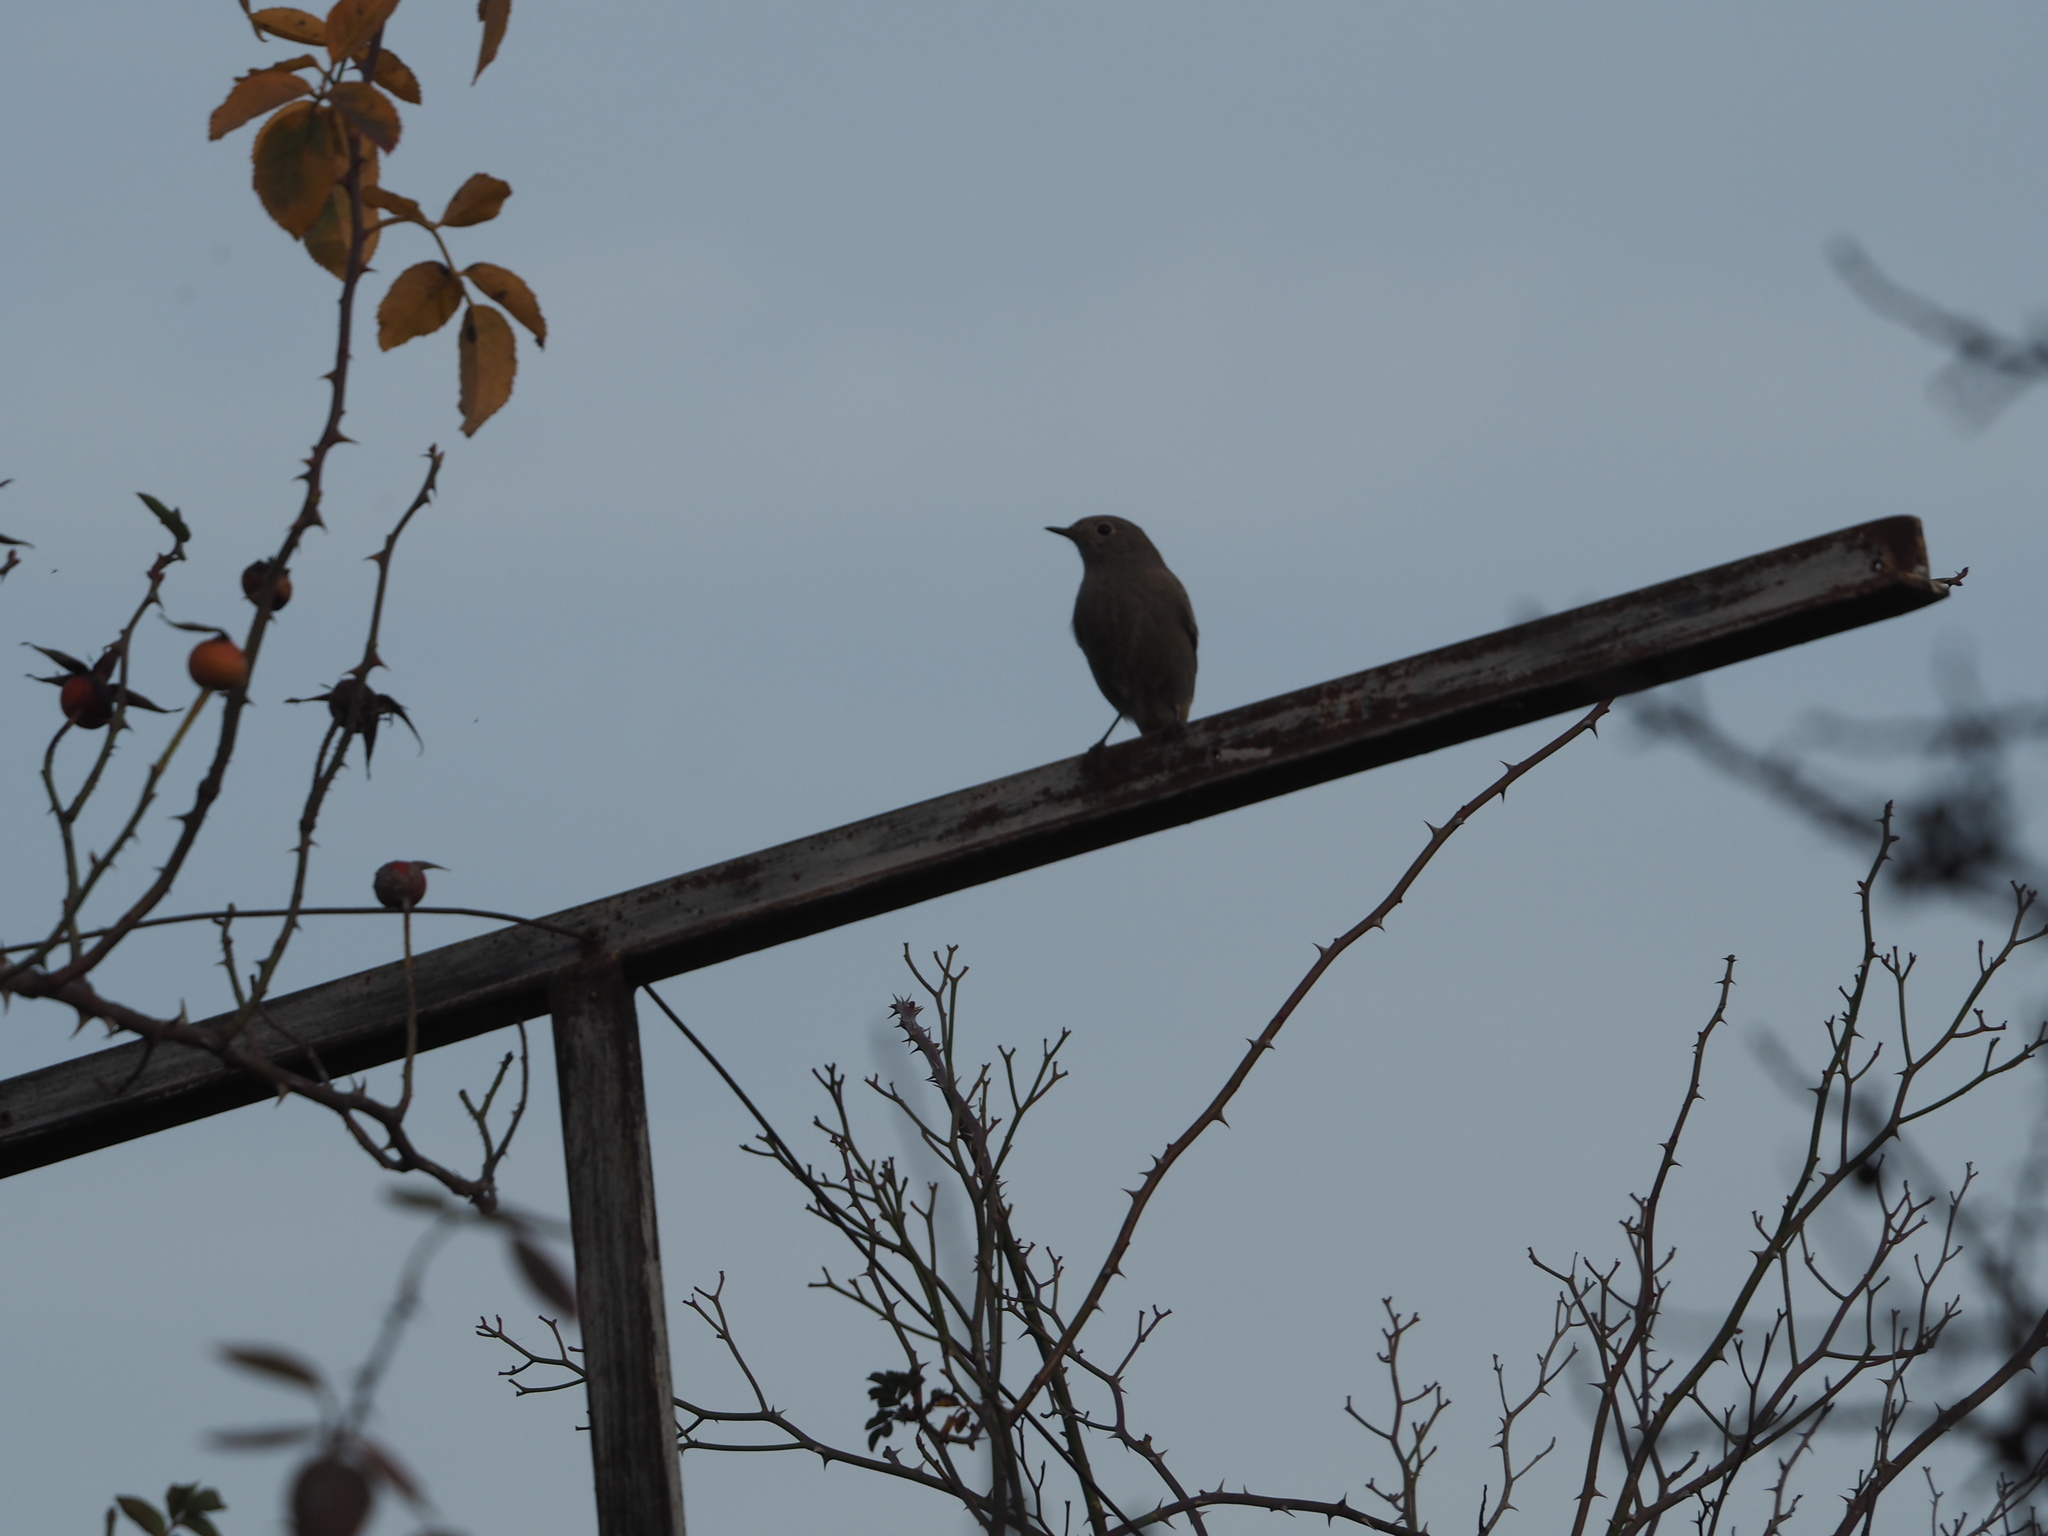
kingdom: Animalia
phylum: Chordata
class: Aves
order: Passeriformes
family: Muscicapidae
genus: Phoenicurus
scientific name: Phoenicurus ochruros
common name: Black redstart
